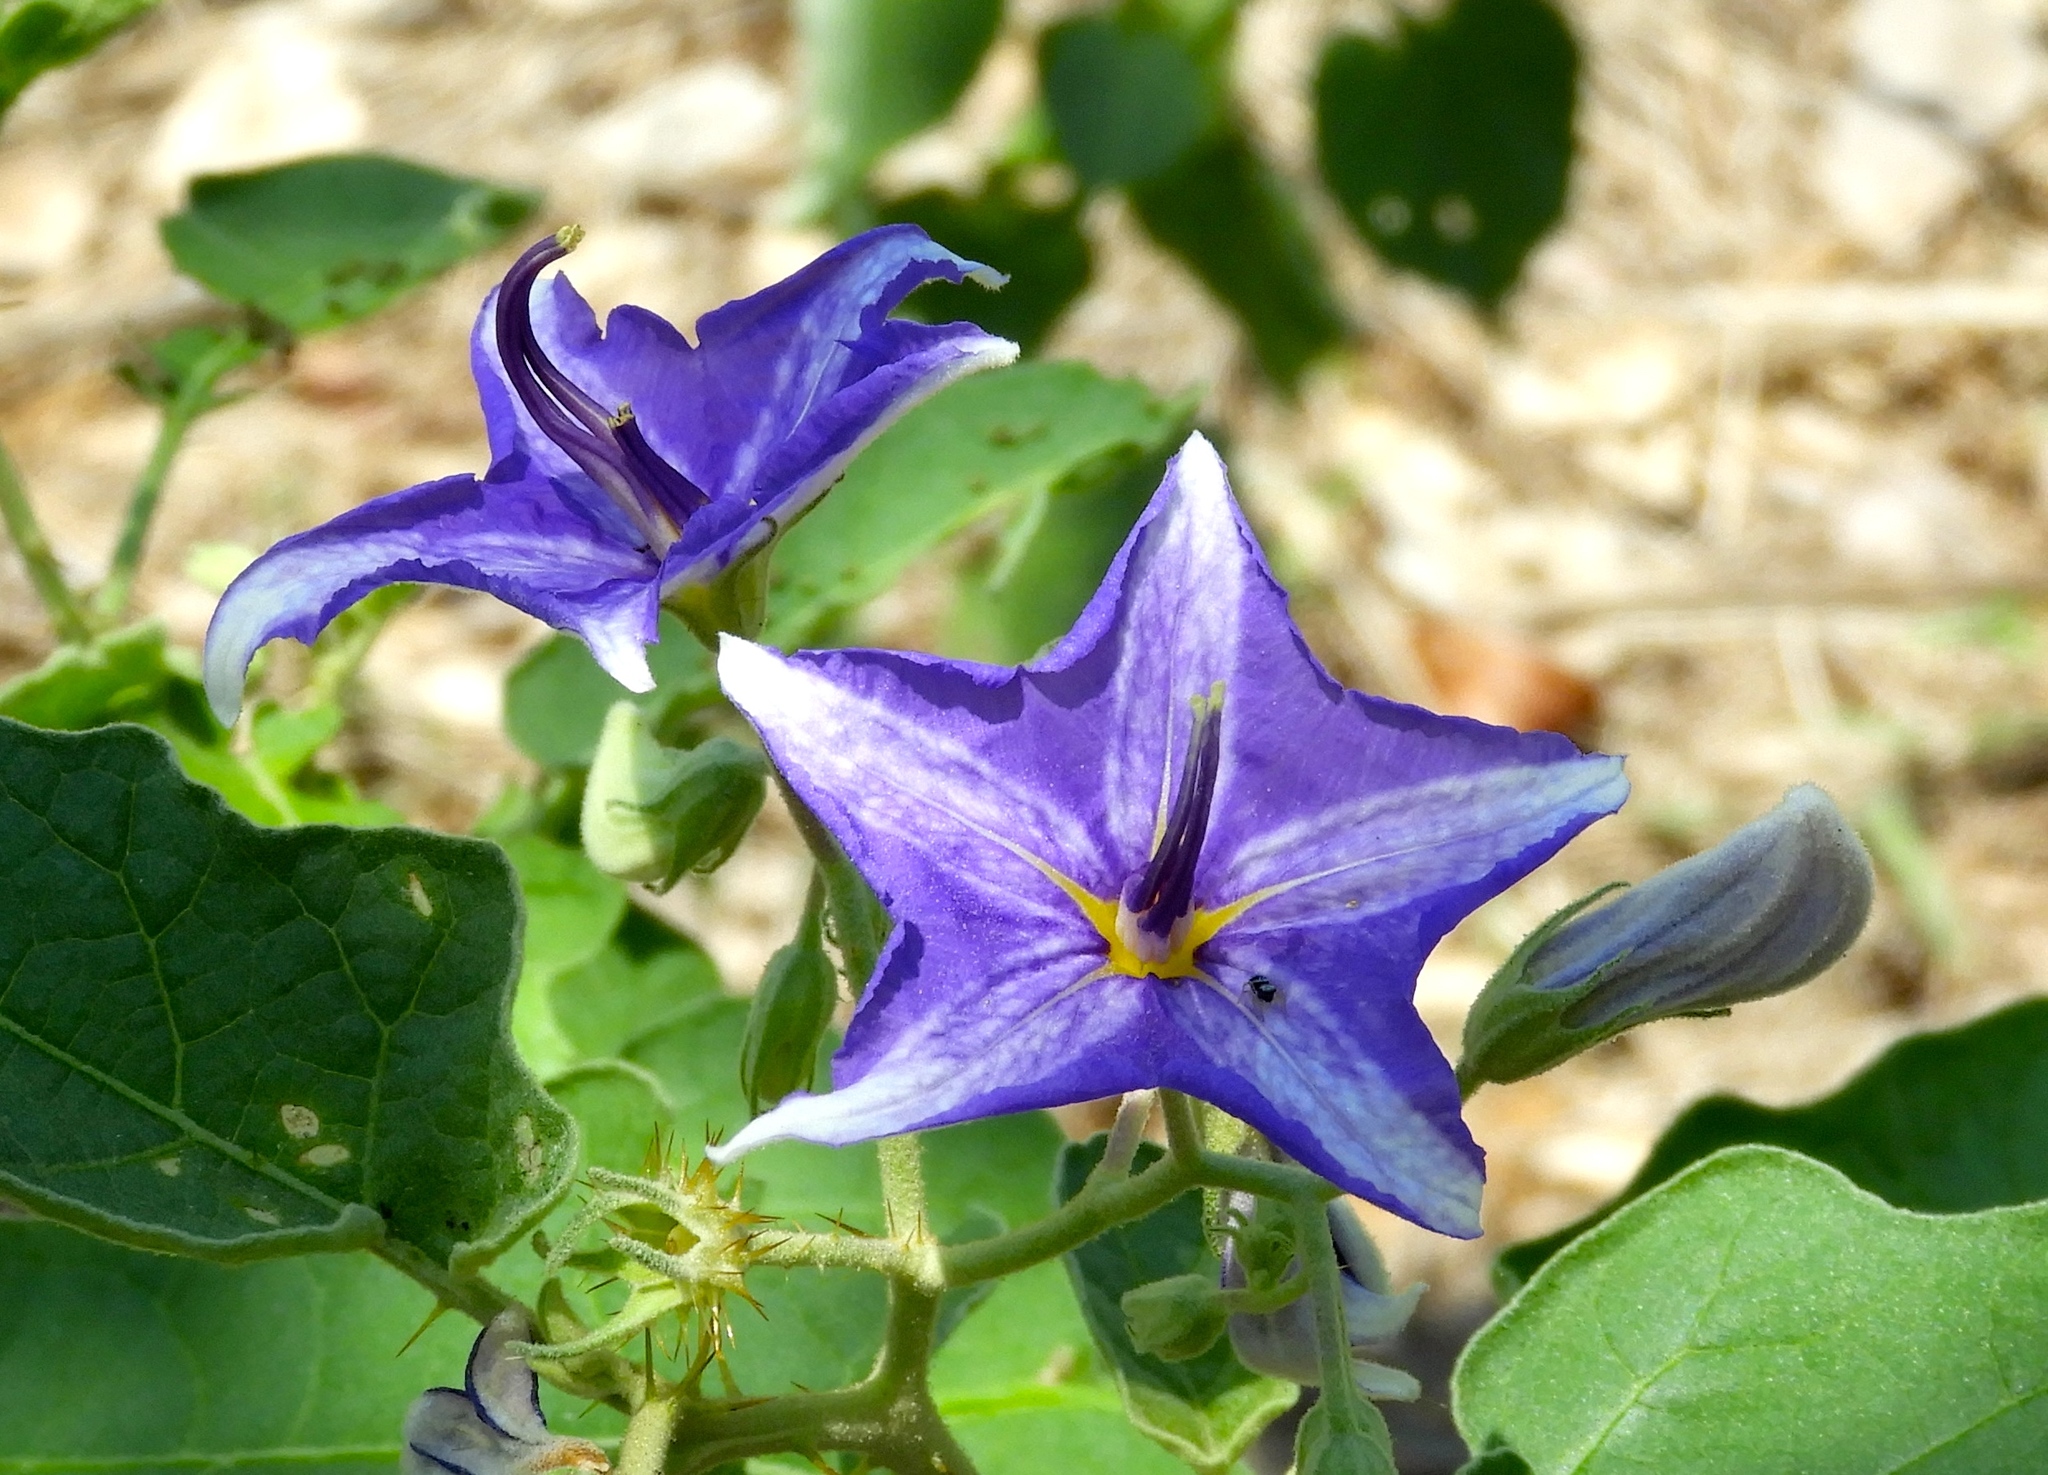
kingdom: Plantae
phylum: Tracheophyta
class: Magnoliopsida
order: Solanales
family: Solanaceae
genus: Solanum
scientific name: Solanum houstonii
